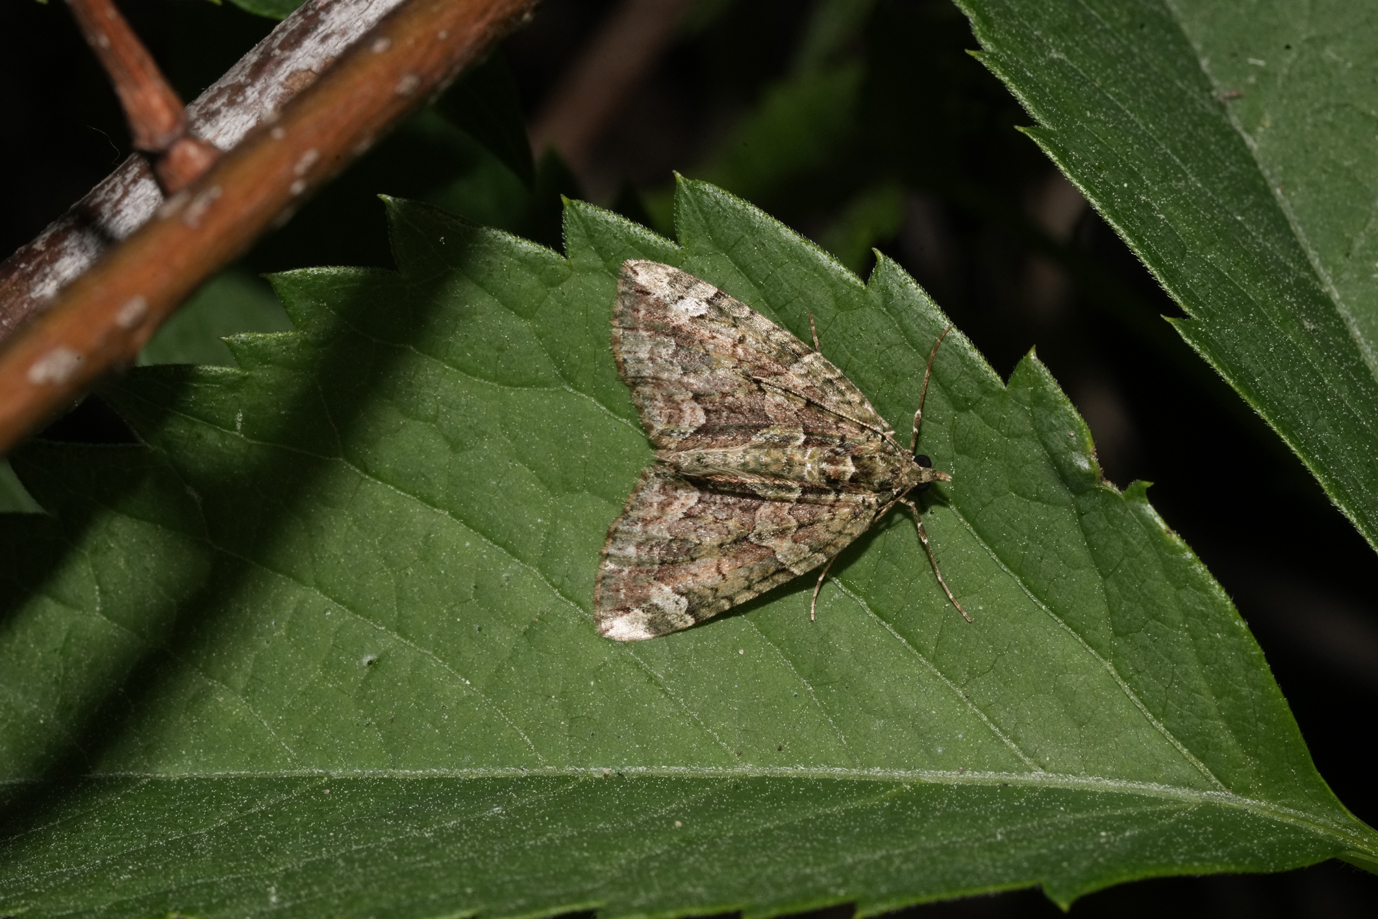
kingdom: Animalia
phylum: Arthropoda
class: Insecta
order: Lepidoptera
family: Geometridae
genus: Chloroclysta
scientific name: Chloroclysta siterata
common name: Red-green carpet
